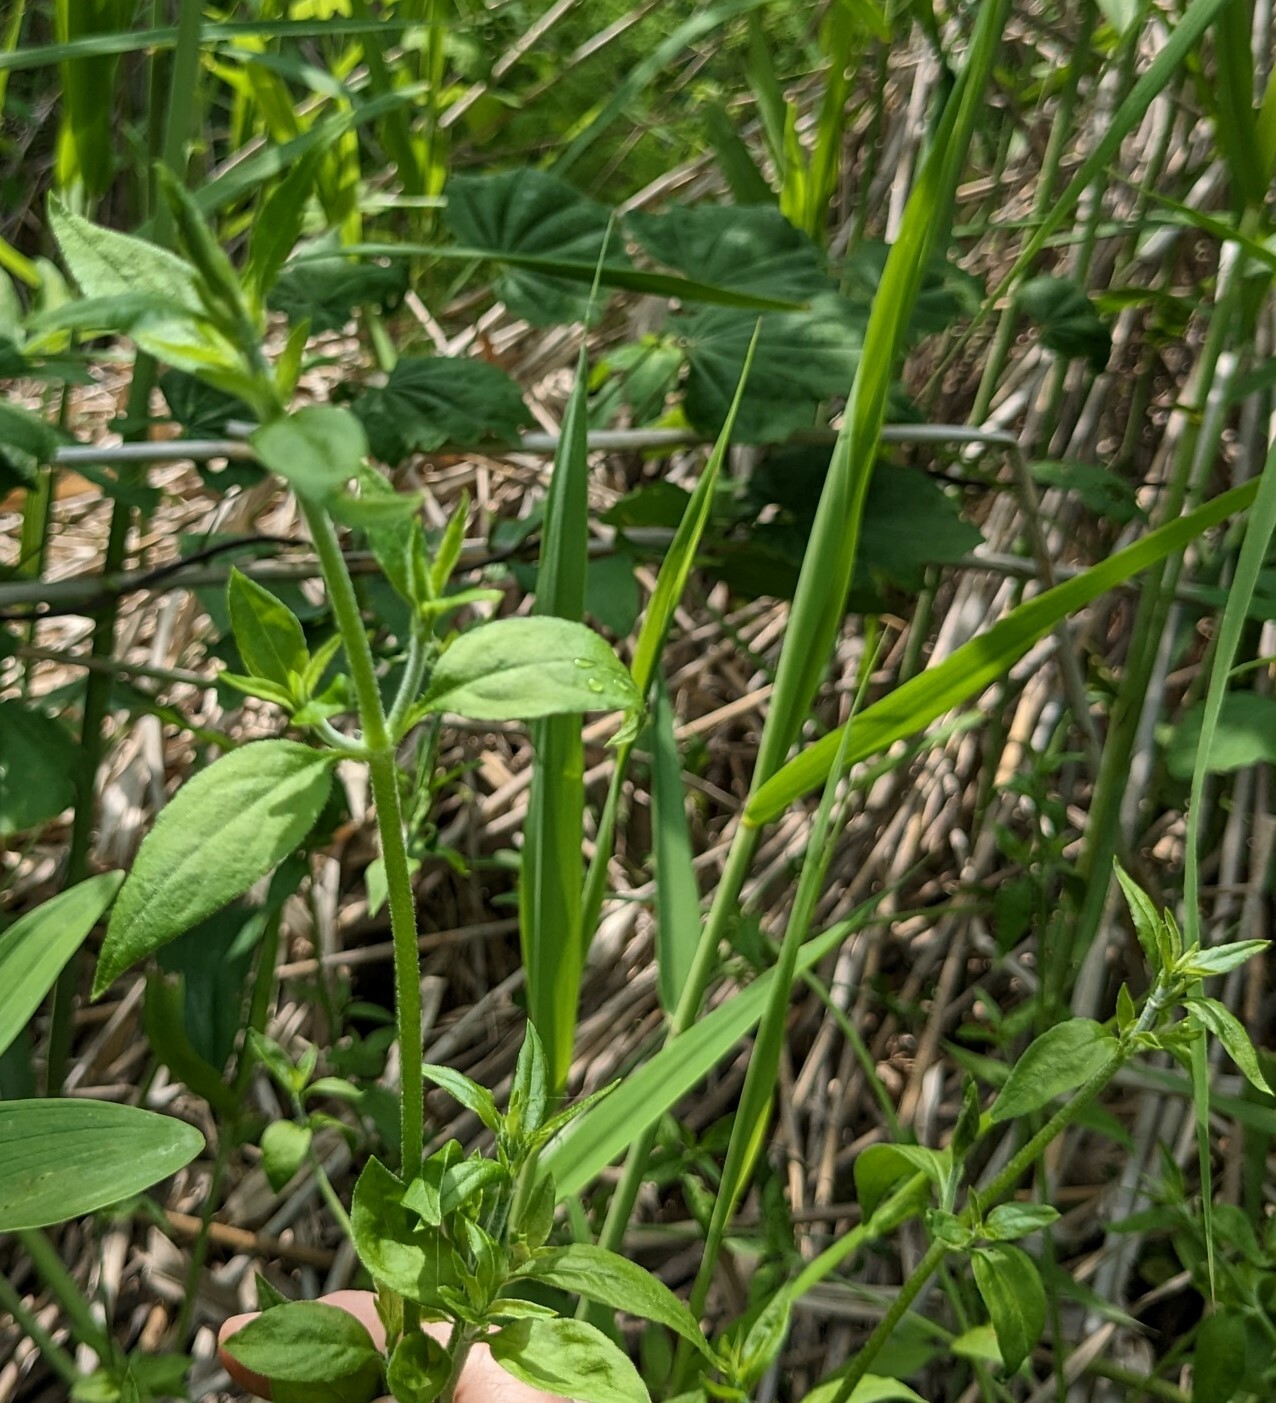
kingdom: Plantae
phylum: Tracheophyta
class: Magnoliopsida
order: Caryophyllales
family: Caryophyllaceae
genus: Silene
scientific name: Silene baccifera
